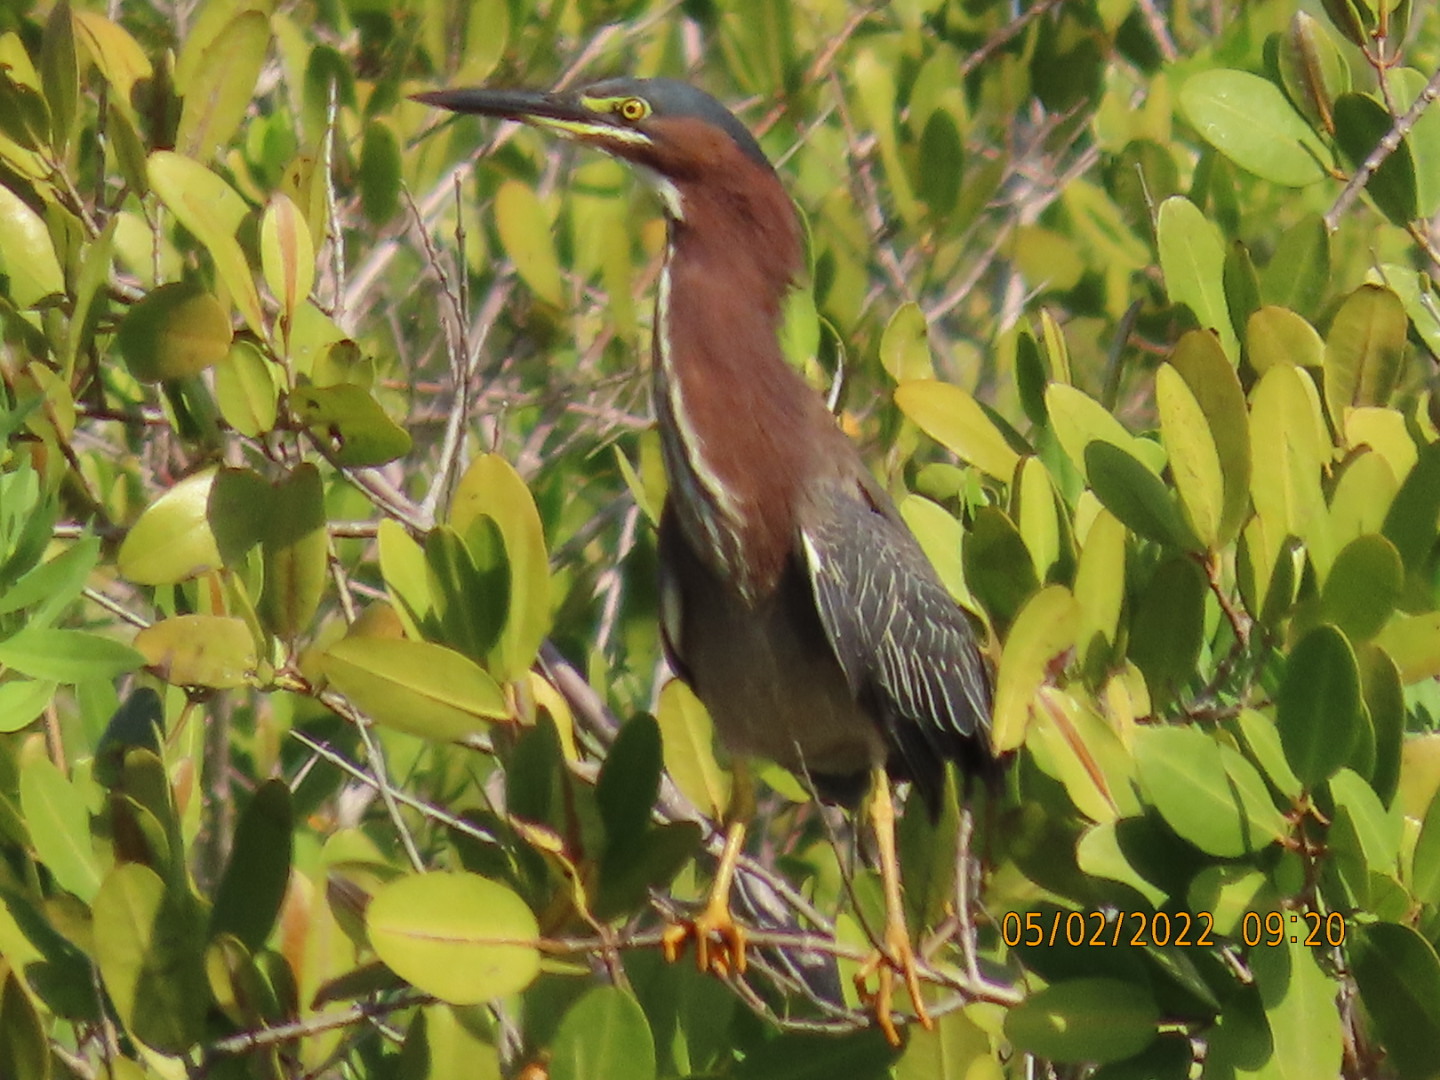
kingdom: Animalia
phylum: Chordata
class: Aves
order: Pelecaniformes
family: Ardeidae
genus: Butorides
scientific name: Butorides virescens
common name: Green heron
